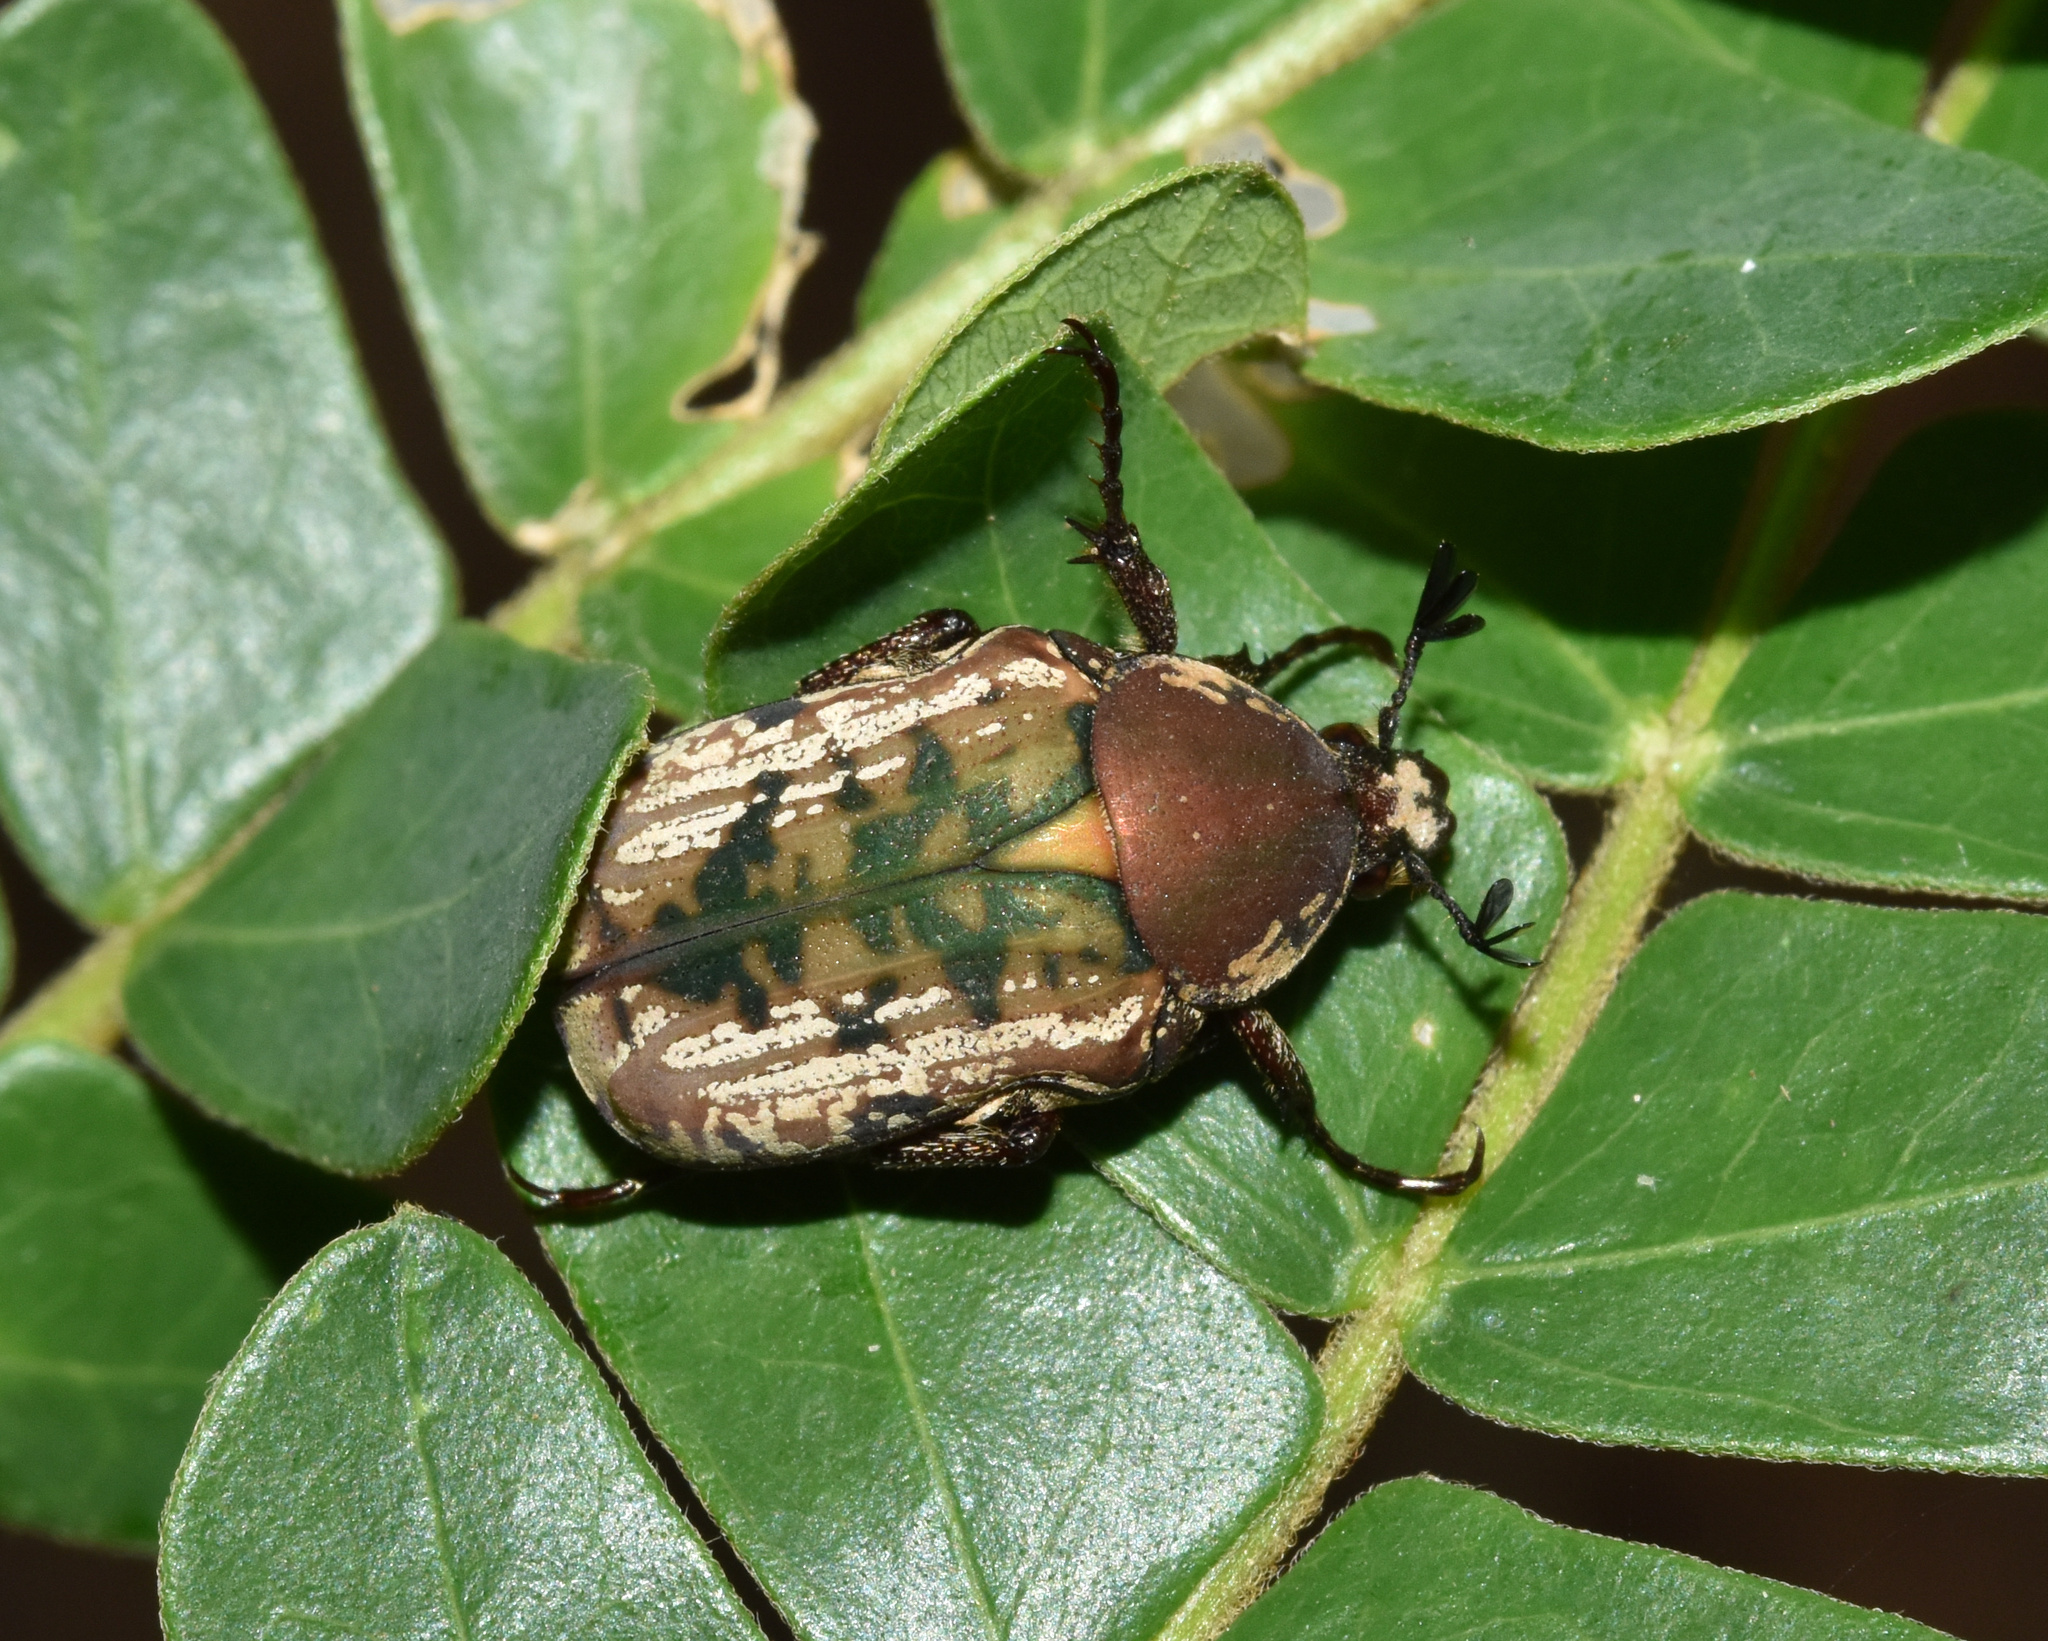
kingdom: Animalia
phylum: Arthropoda
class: Insecta
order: Coleoptera
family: Scarabaeidae
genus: Elaphinis
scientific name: Elaphinis irrorata
